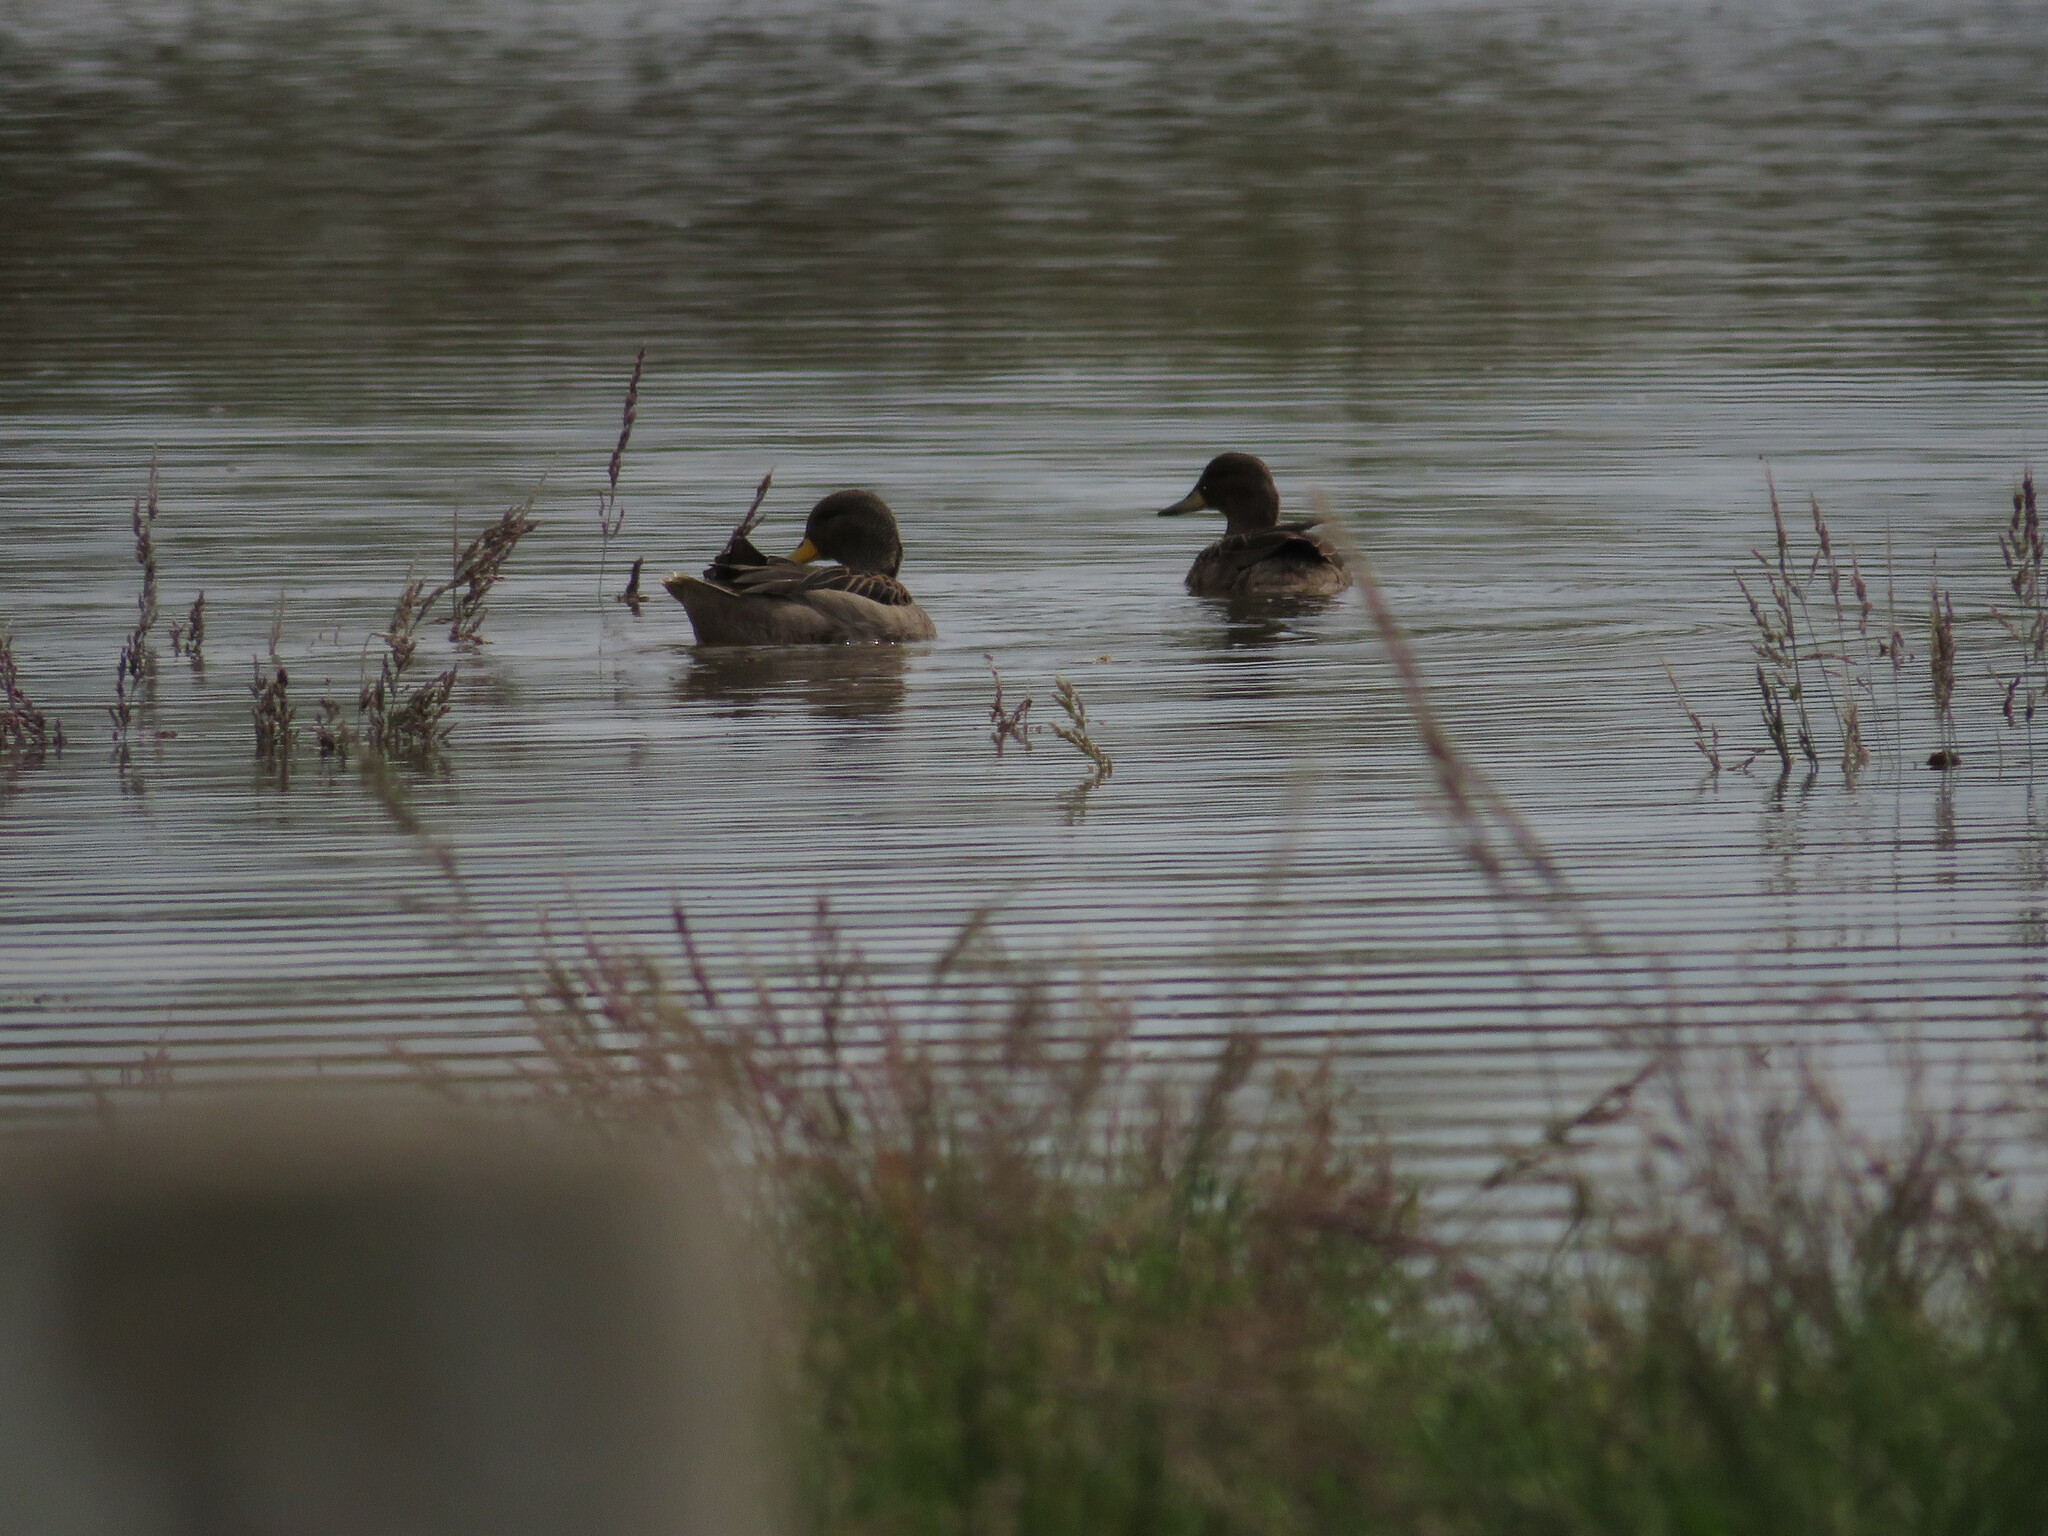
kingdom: Animalia
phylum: Chordata
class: Aves
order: Anseriformes
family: Anatidae
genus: Anas
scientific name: Anas flavirostris
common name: Yellow-billed teal
